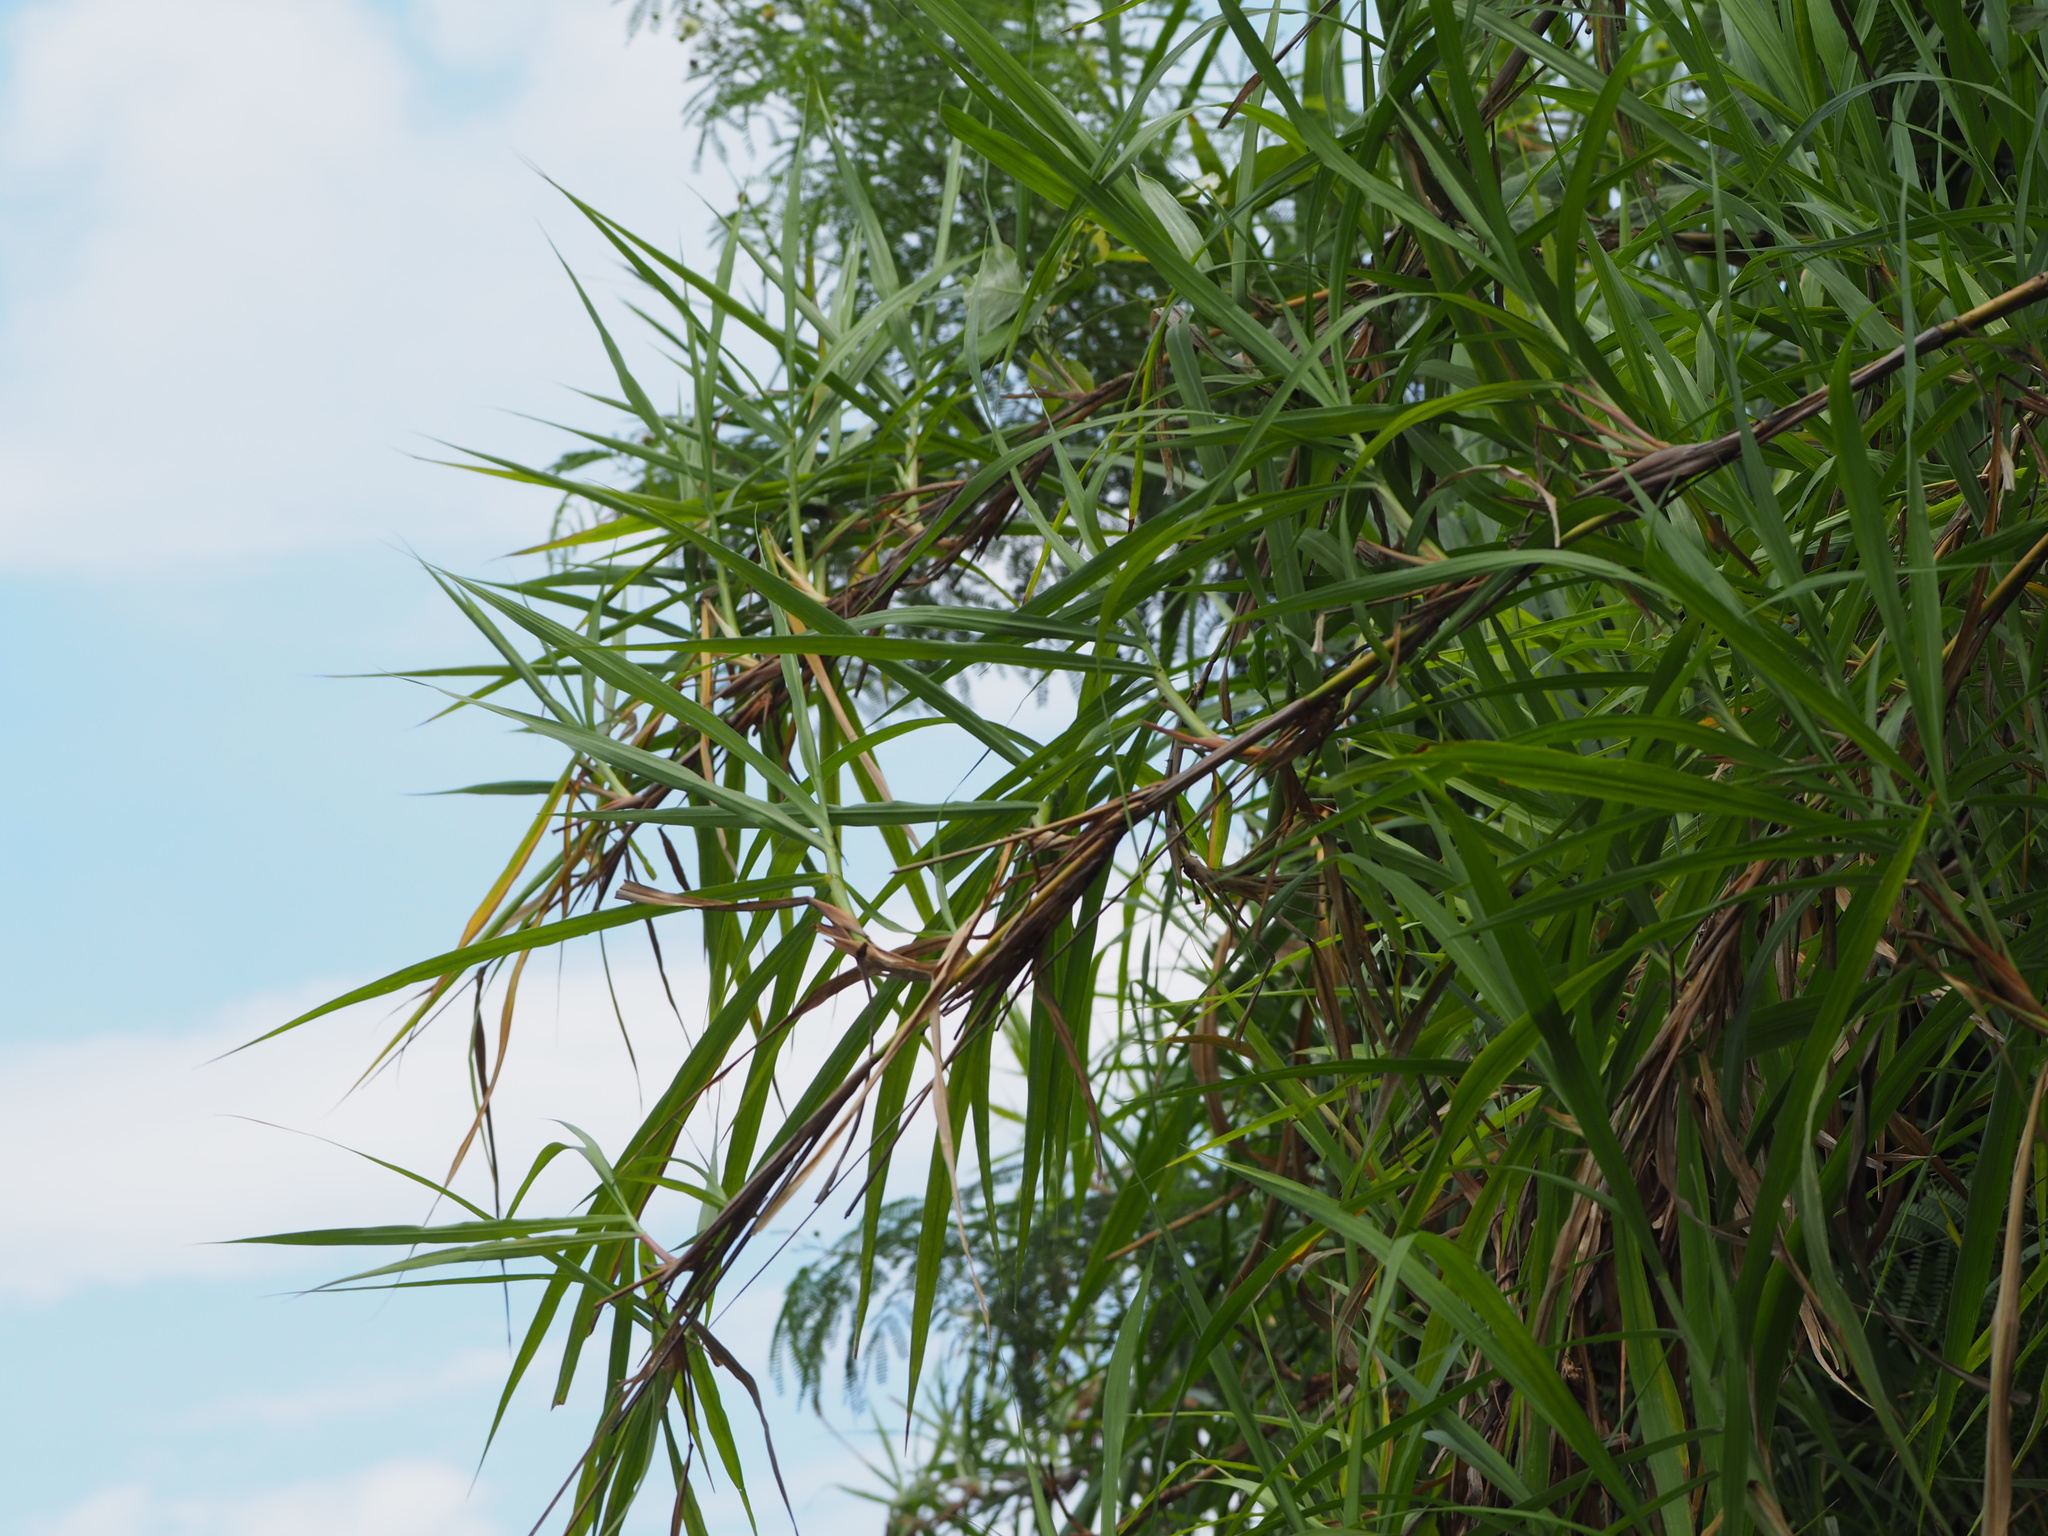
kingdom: Plantae
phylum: Tracheophyta
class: Liliopsida
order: Poales
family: Poaceae
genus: Cenchrus
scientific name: Cenchrus purpureus
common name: Elephant grass
